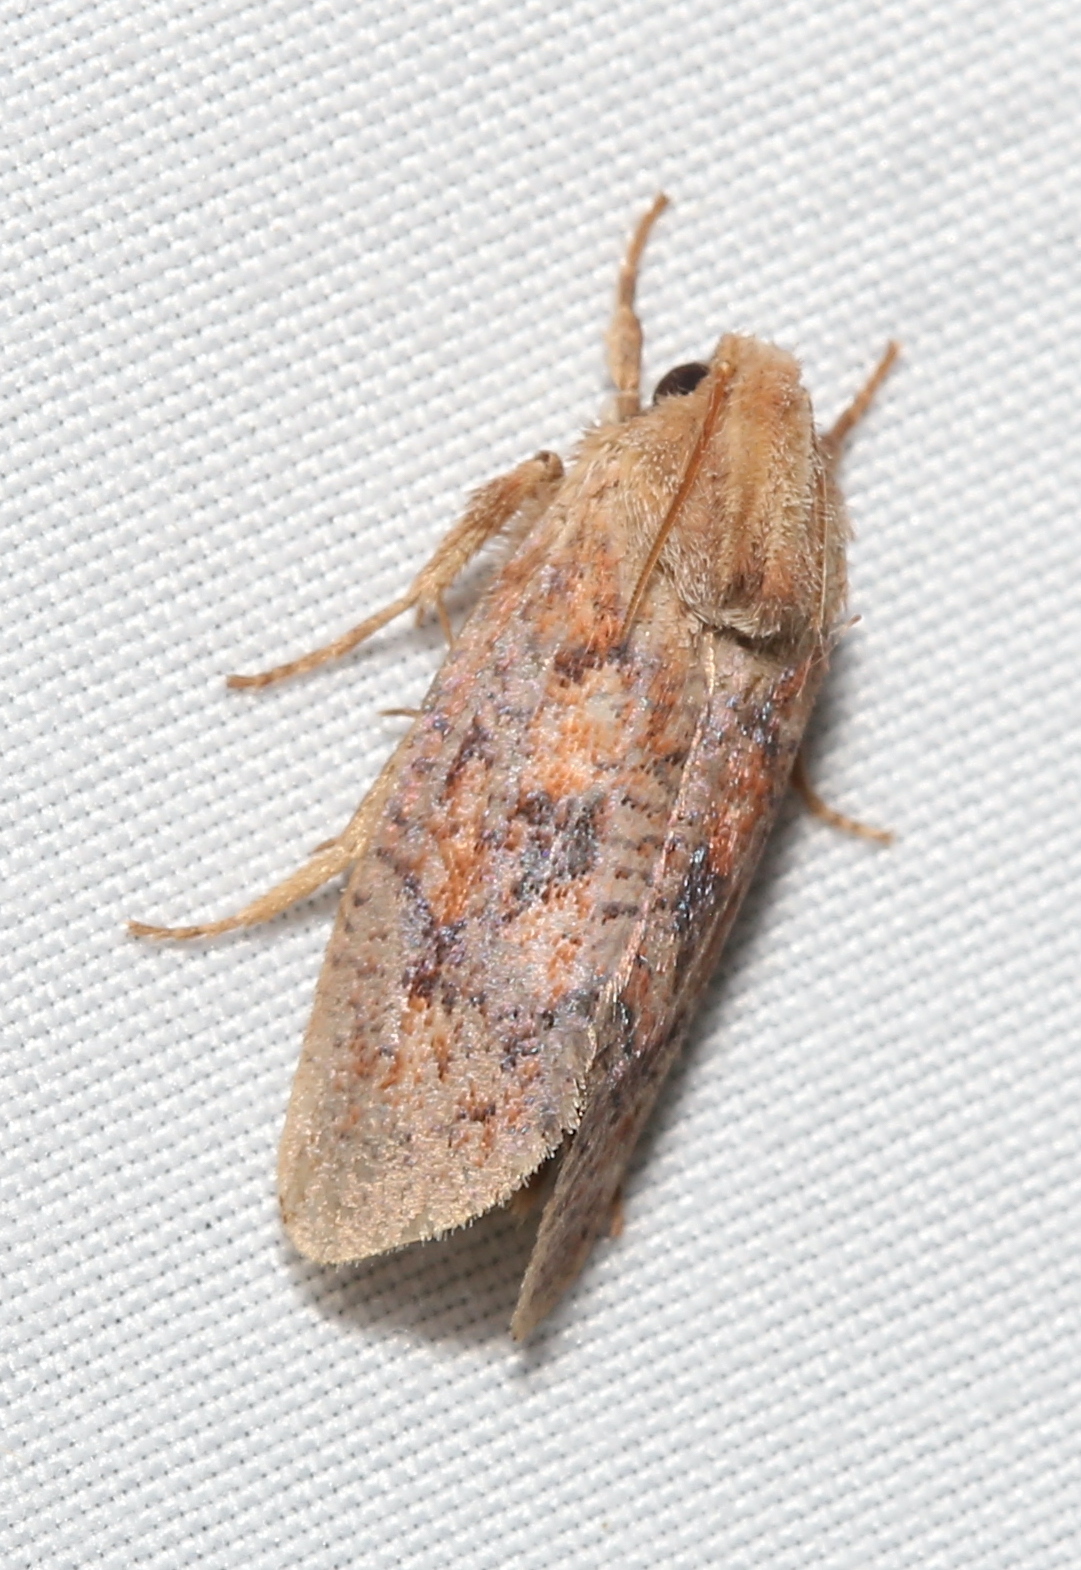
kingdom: Animalia
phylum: Arthropoda
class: Insecta
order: Lepidoptera
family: Tineidae
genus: Acrolophus
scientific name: Acrolophus plumifrontella
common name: Eastern grass tubeworm moth
